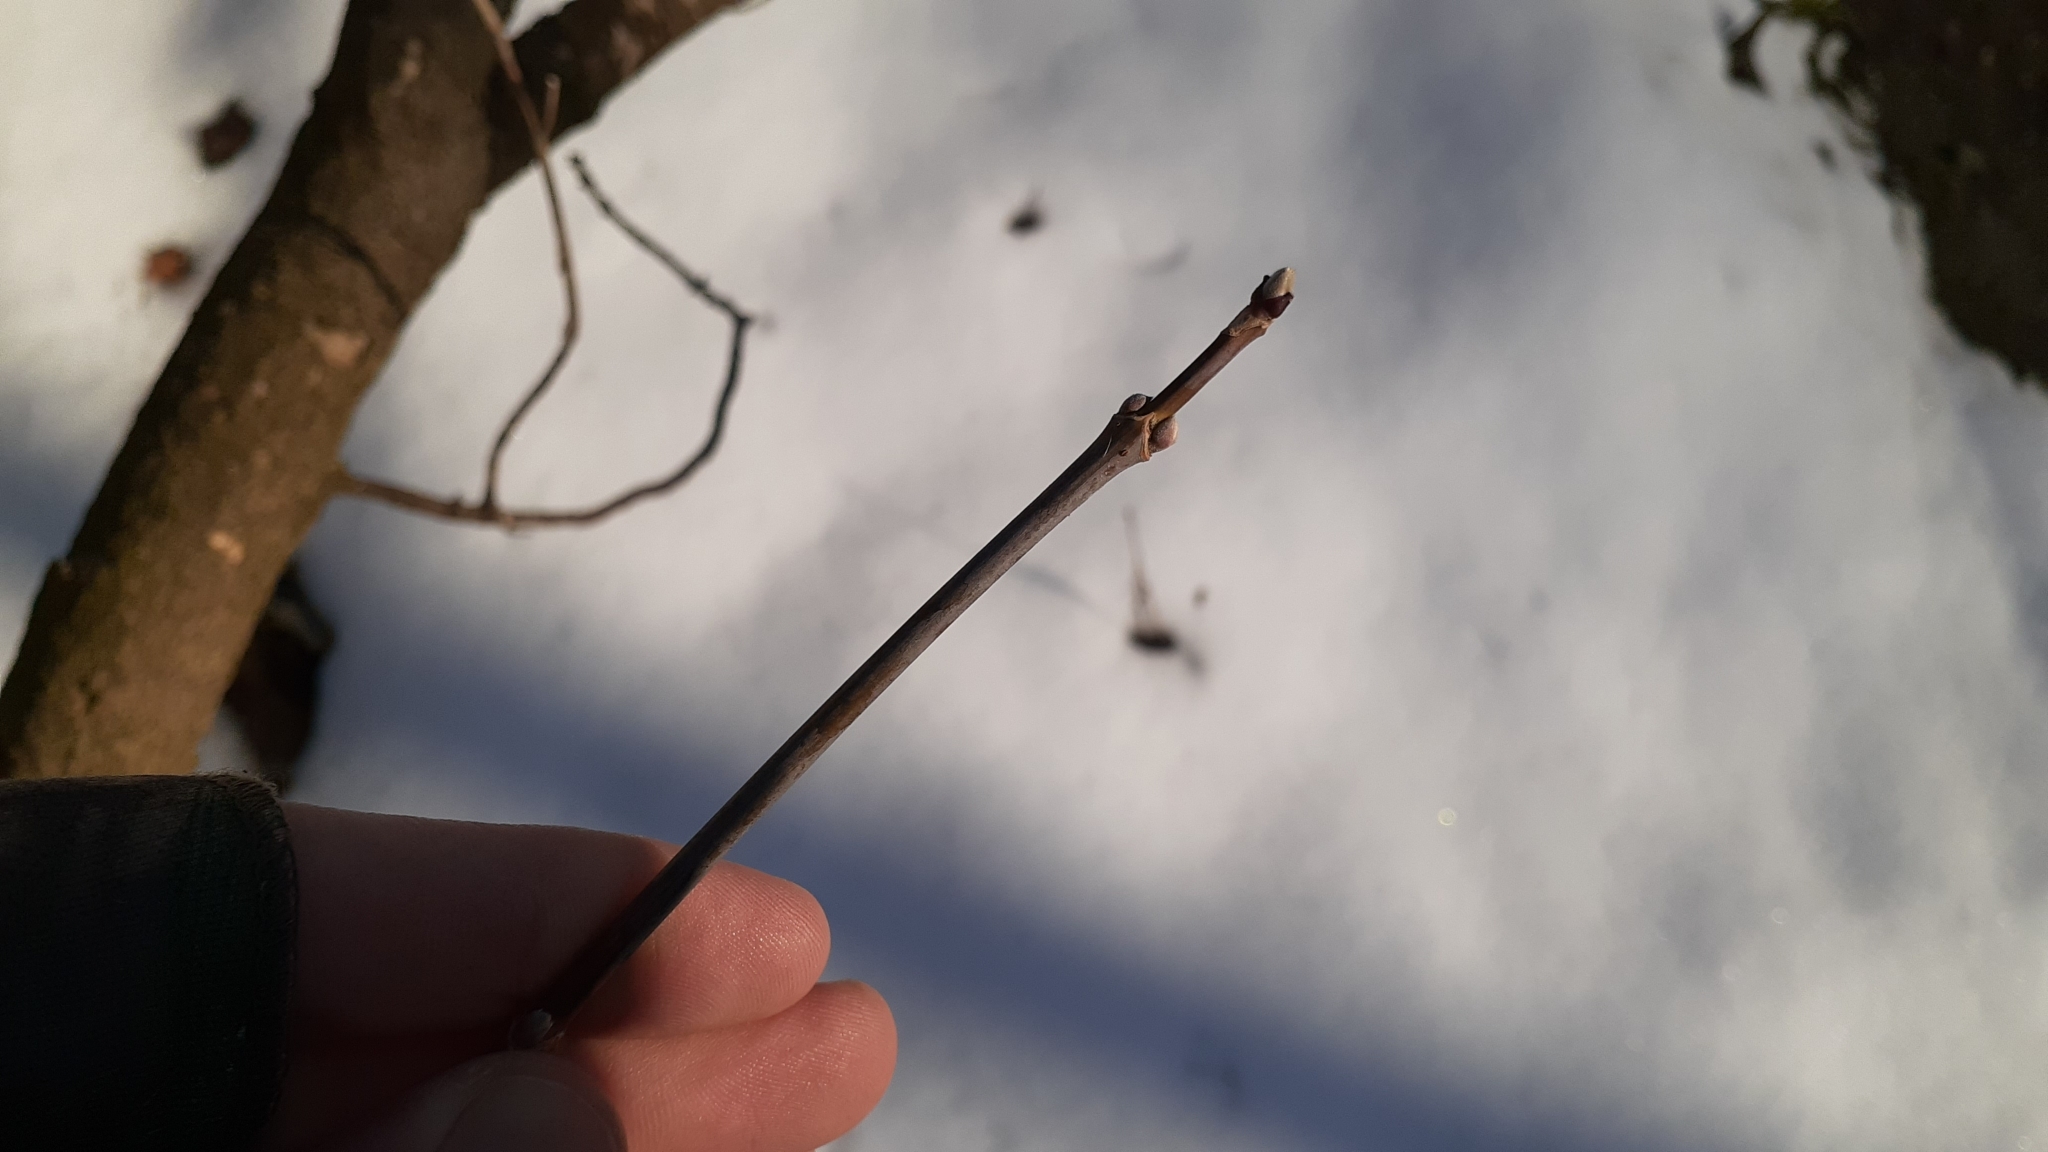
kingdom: Plantae
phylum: Tracheophyta
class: Magnoliopsida
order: Sapindales
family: Sapindaceae
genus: Acer
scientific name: Acer negundo
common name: Ashleaf maple
